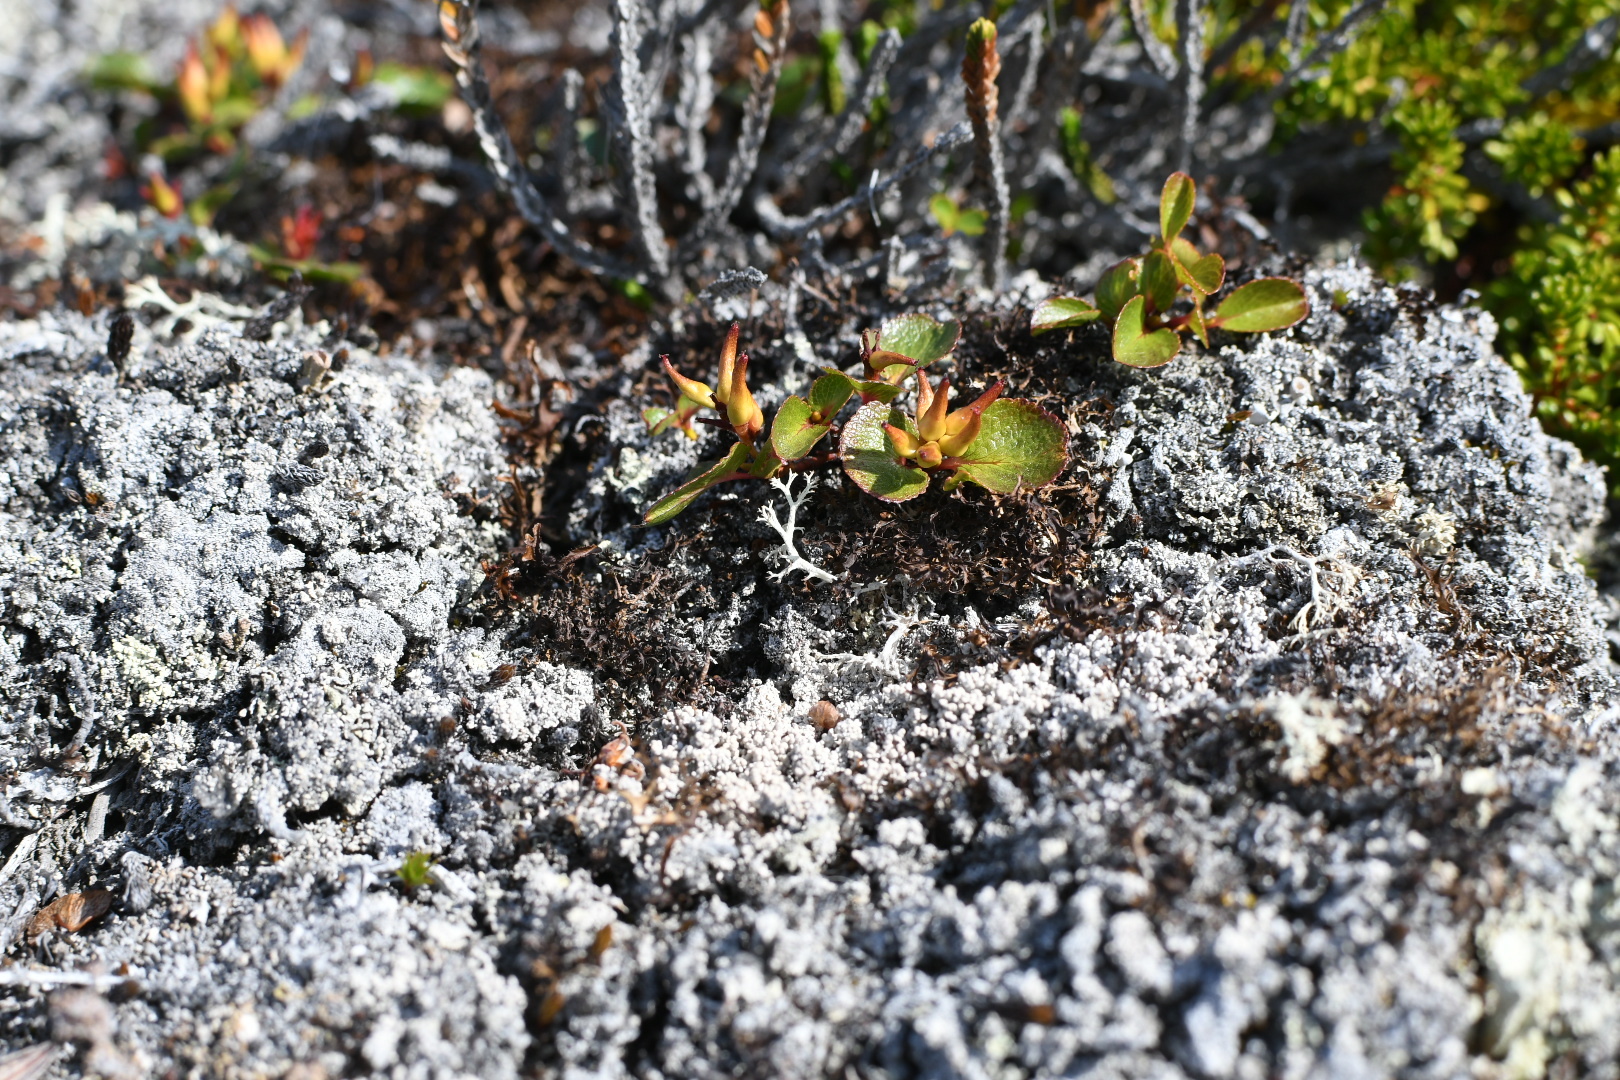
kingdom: Plantae
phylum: Tracheophyta
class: Magnoliopsida
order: Malpighiales
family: Salicaceae
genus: Salix
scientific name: Salix herbacea
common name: Dwarf willow
